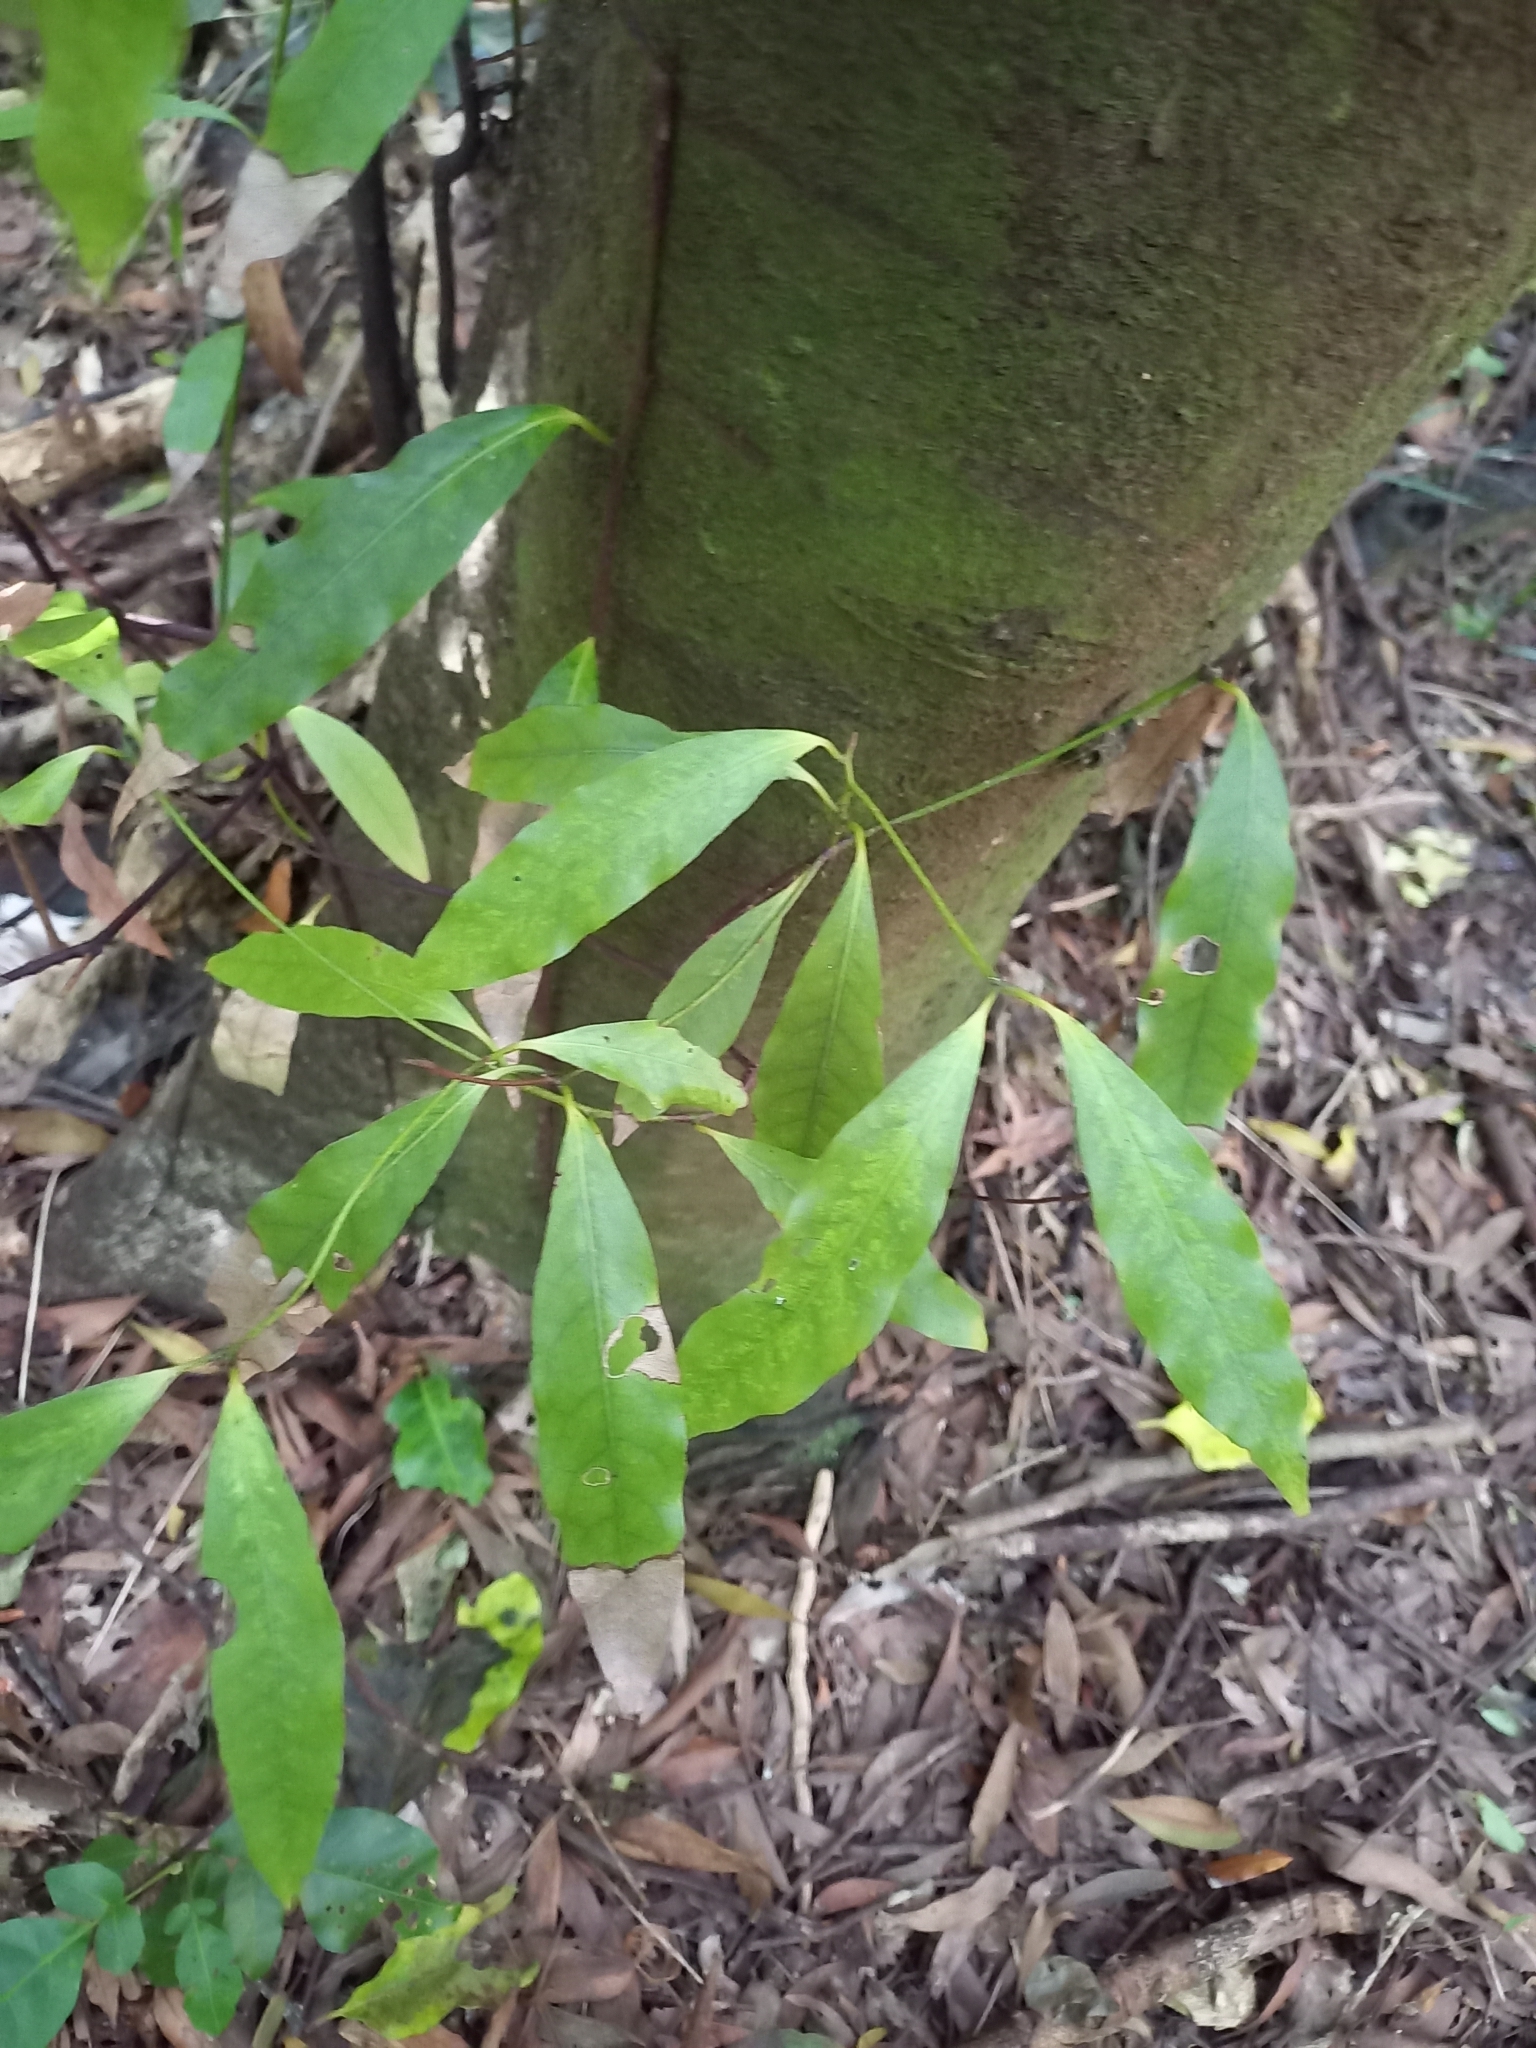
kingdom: Plantae
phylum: Tracheophyta
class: Magnoliopsida
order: Laurales
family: Lauraceae
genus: Beilschmiedia
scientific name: Beilschmiedia tawa
